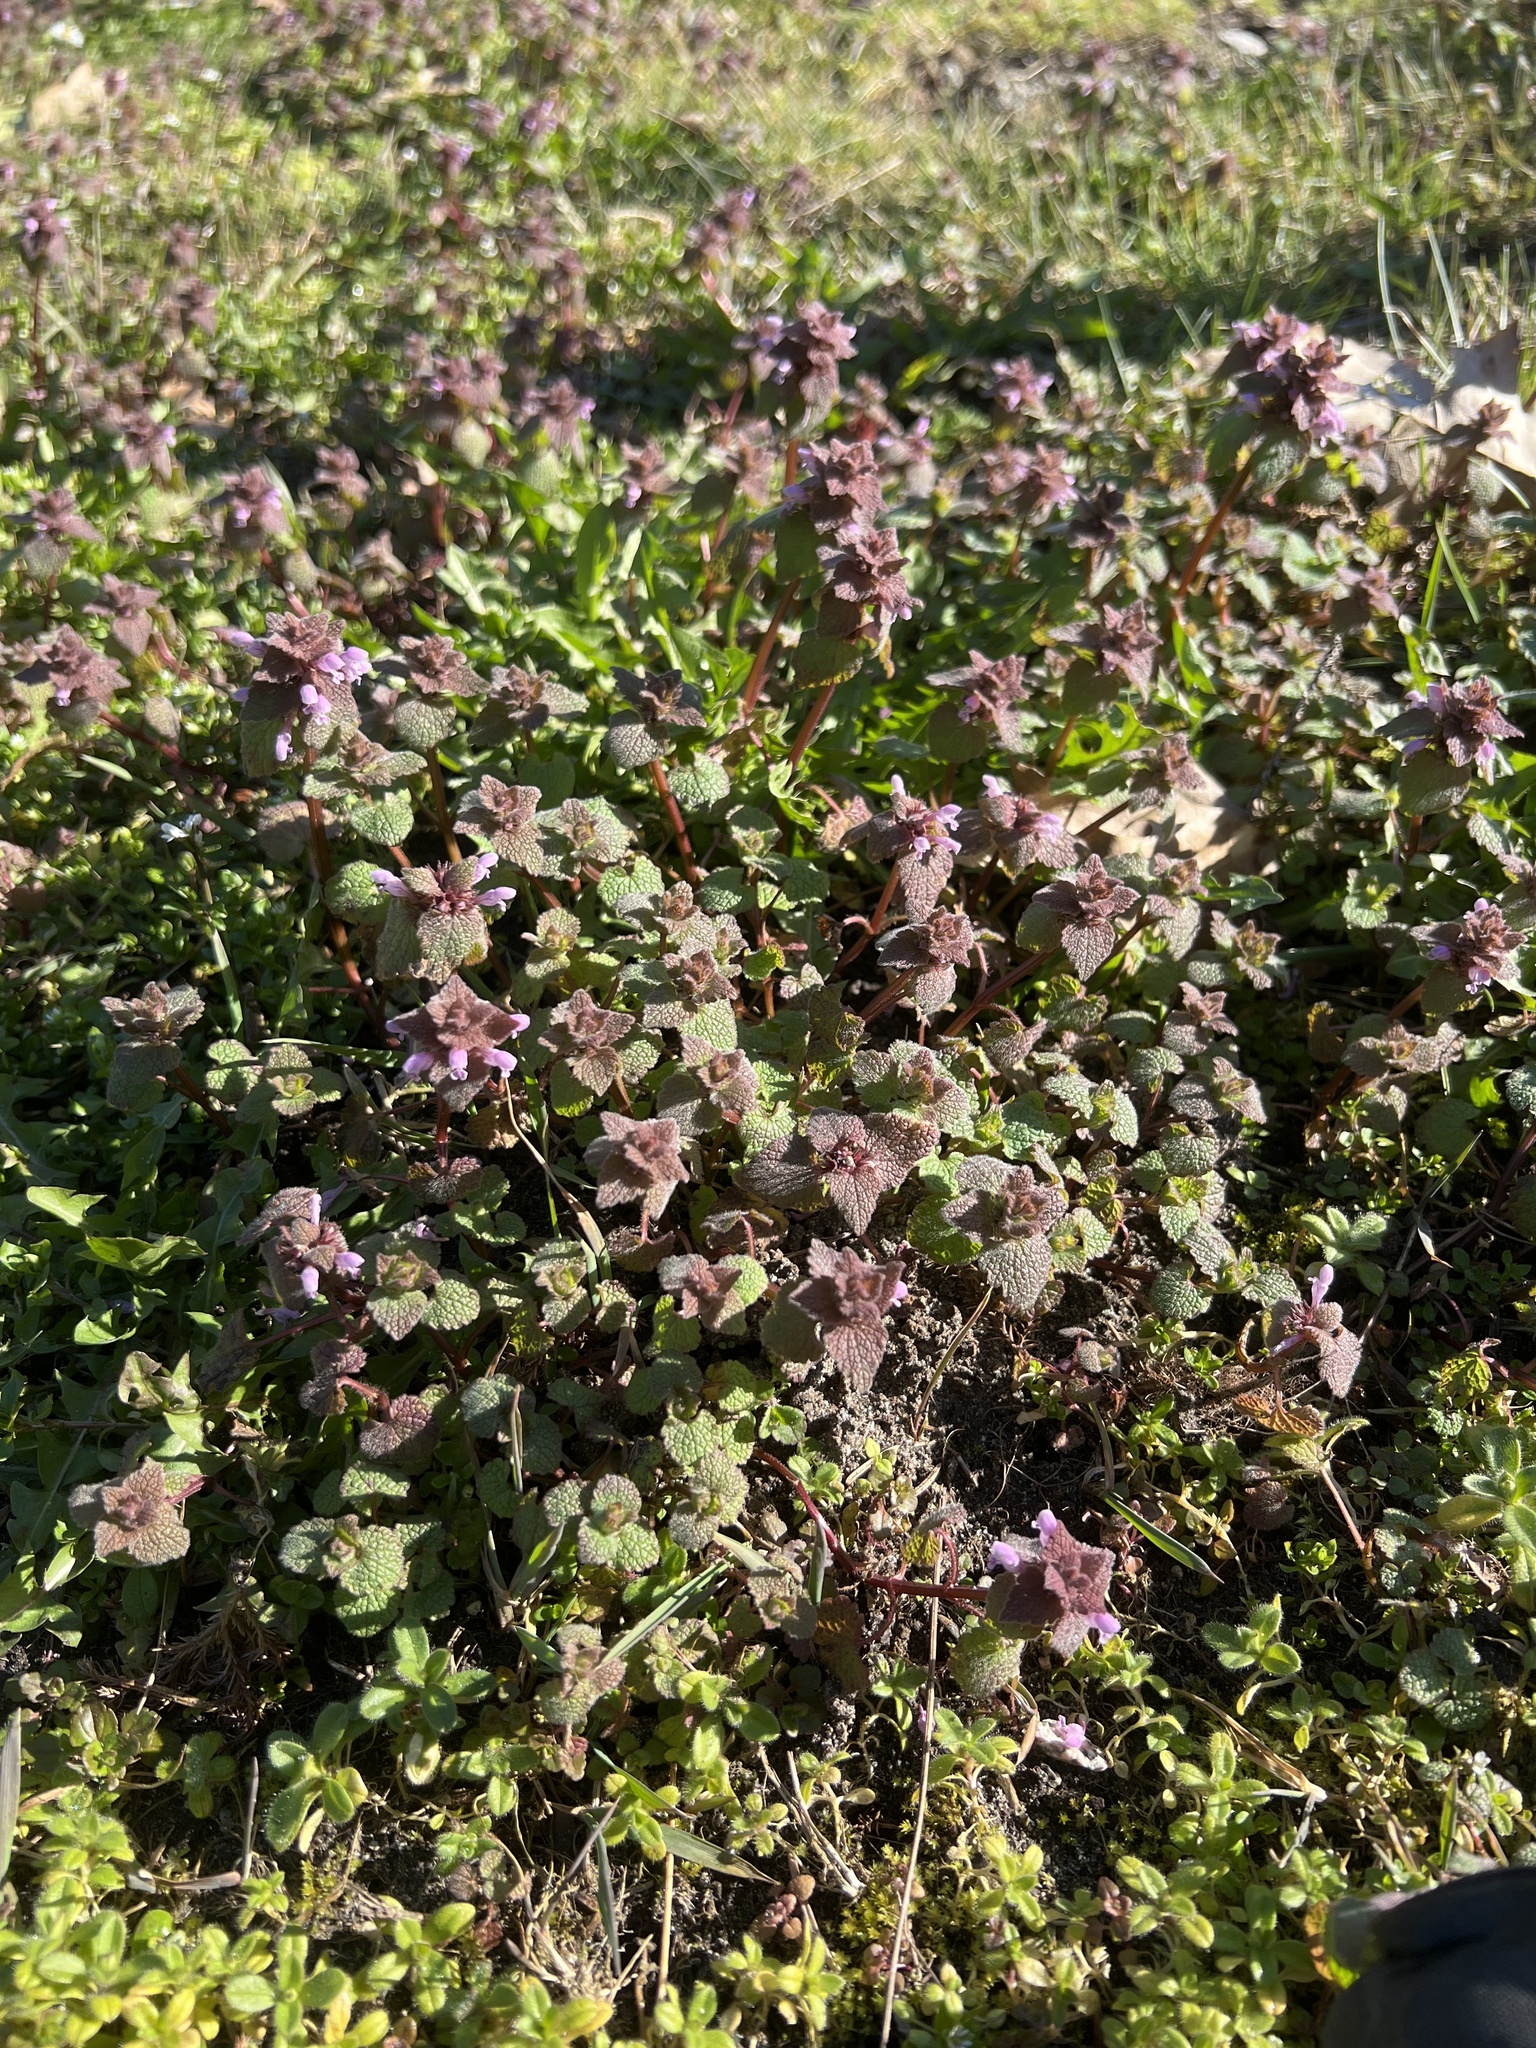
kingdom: Plantae
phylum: Tracheophyta
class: Magnoliopsida
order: Lamiales
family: Lamiaceae
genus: Lamium
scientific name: Lamium purpureum
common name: Red dead-nettle
